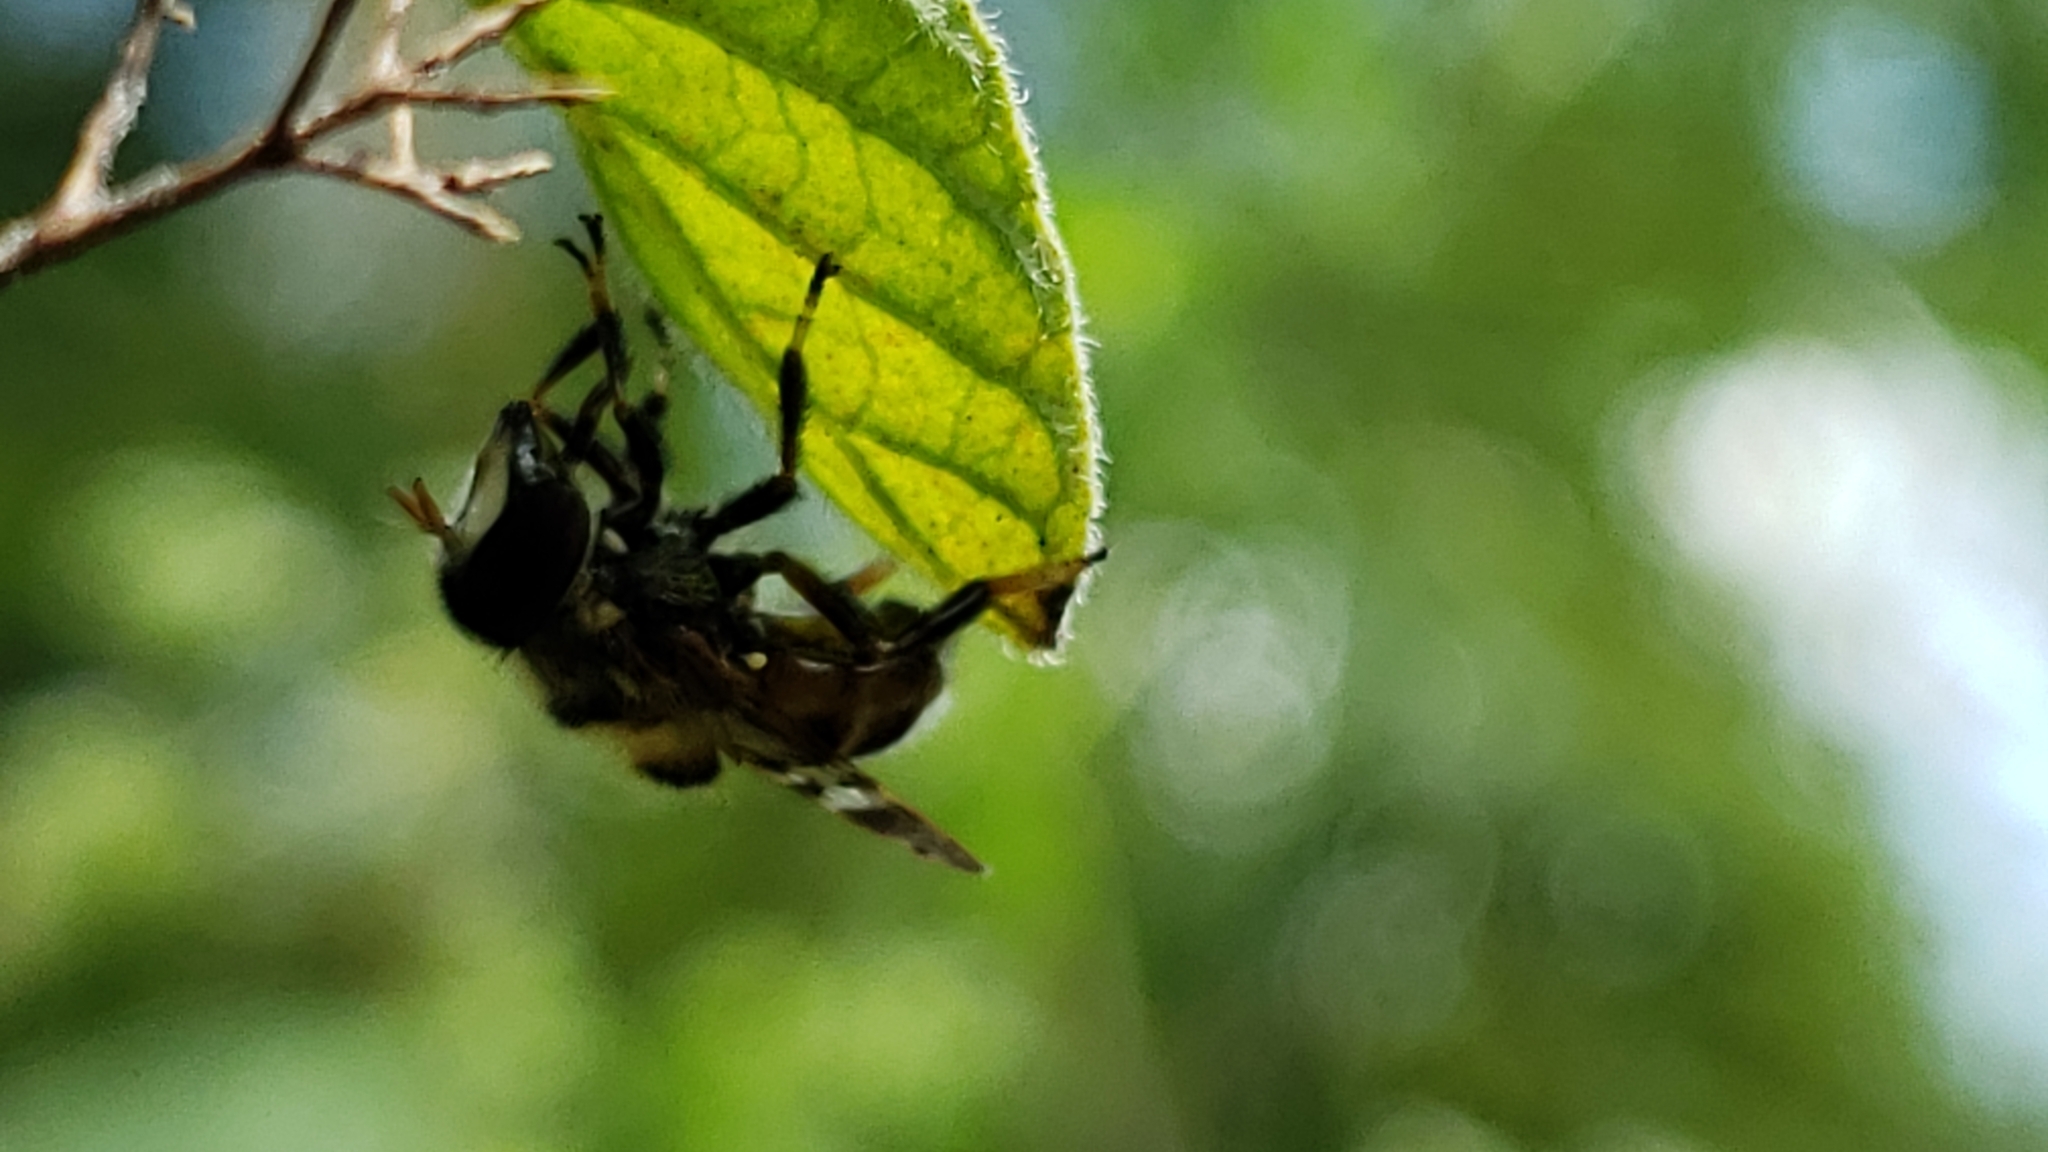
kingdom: Animalia
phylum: Arthropoda
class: Insecta
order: Diptera
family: Syrphidae
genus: Copestylum
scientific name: Copestylum tamaulipanum
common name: Syrphid fly
